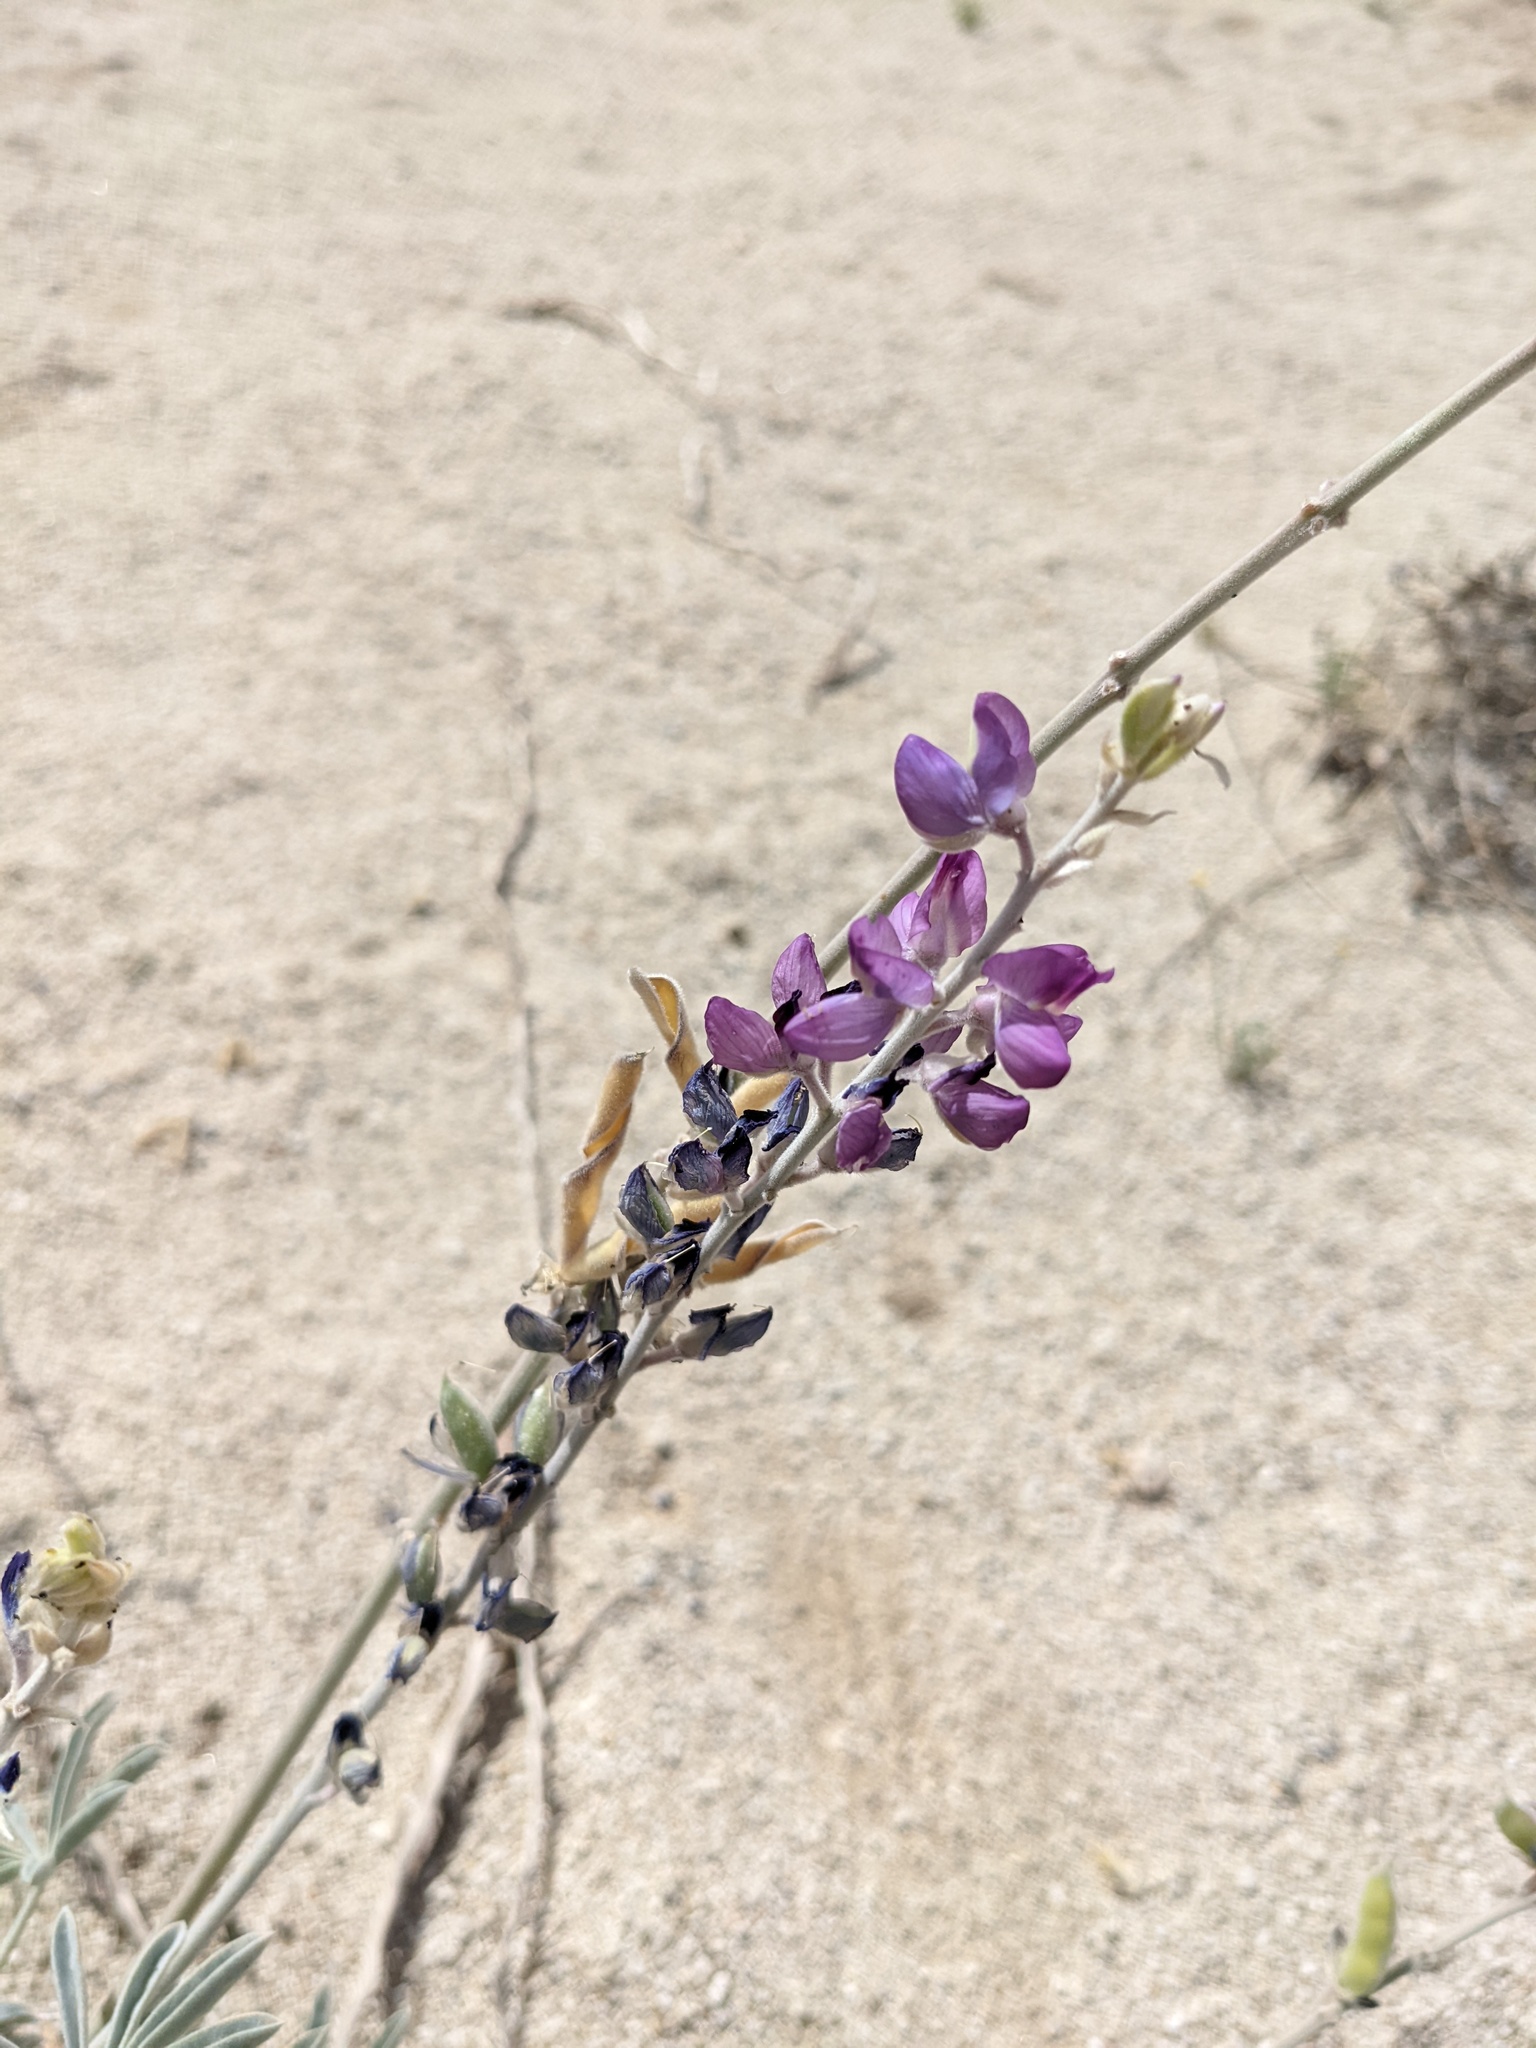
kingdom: Plantae
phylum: Tracheophyta
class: Magnoliopsida
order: Fabales
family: Fabaceae
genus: Lupinus
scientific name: Lupinus excubitus
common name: Grape soda lupine
